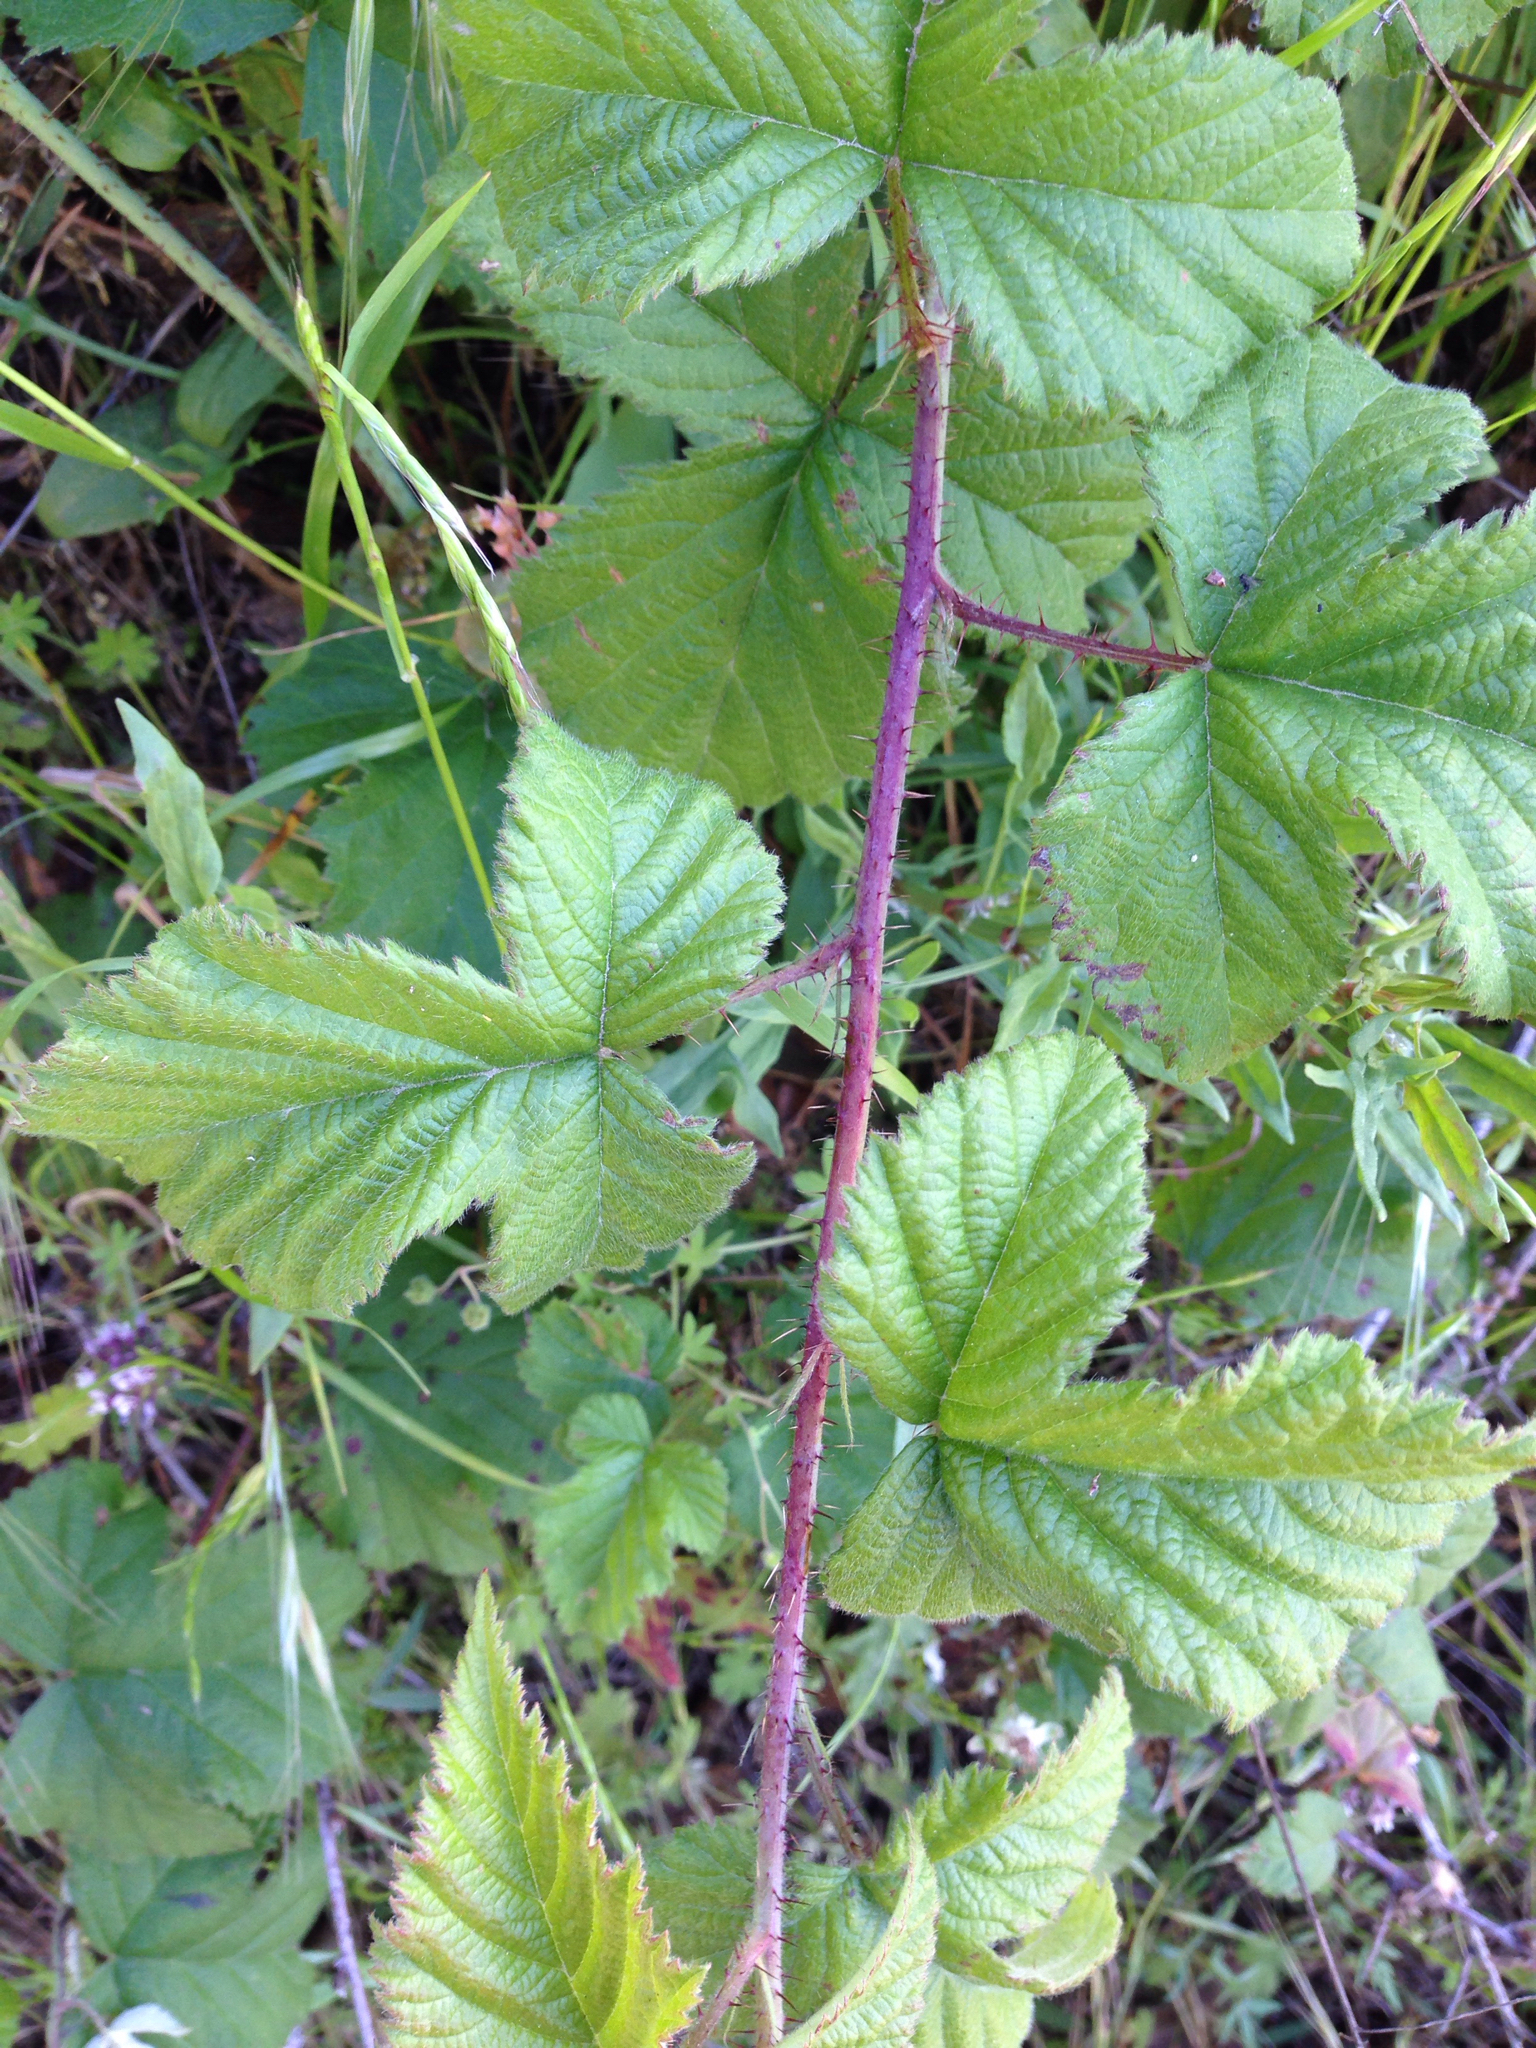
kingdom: Plantae
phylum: Tracheophyta
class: Magnoliopsida
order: Rosales
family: Rosaceae
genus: Rubus
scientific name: Rubus ursinus
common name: Pacific blackberry
